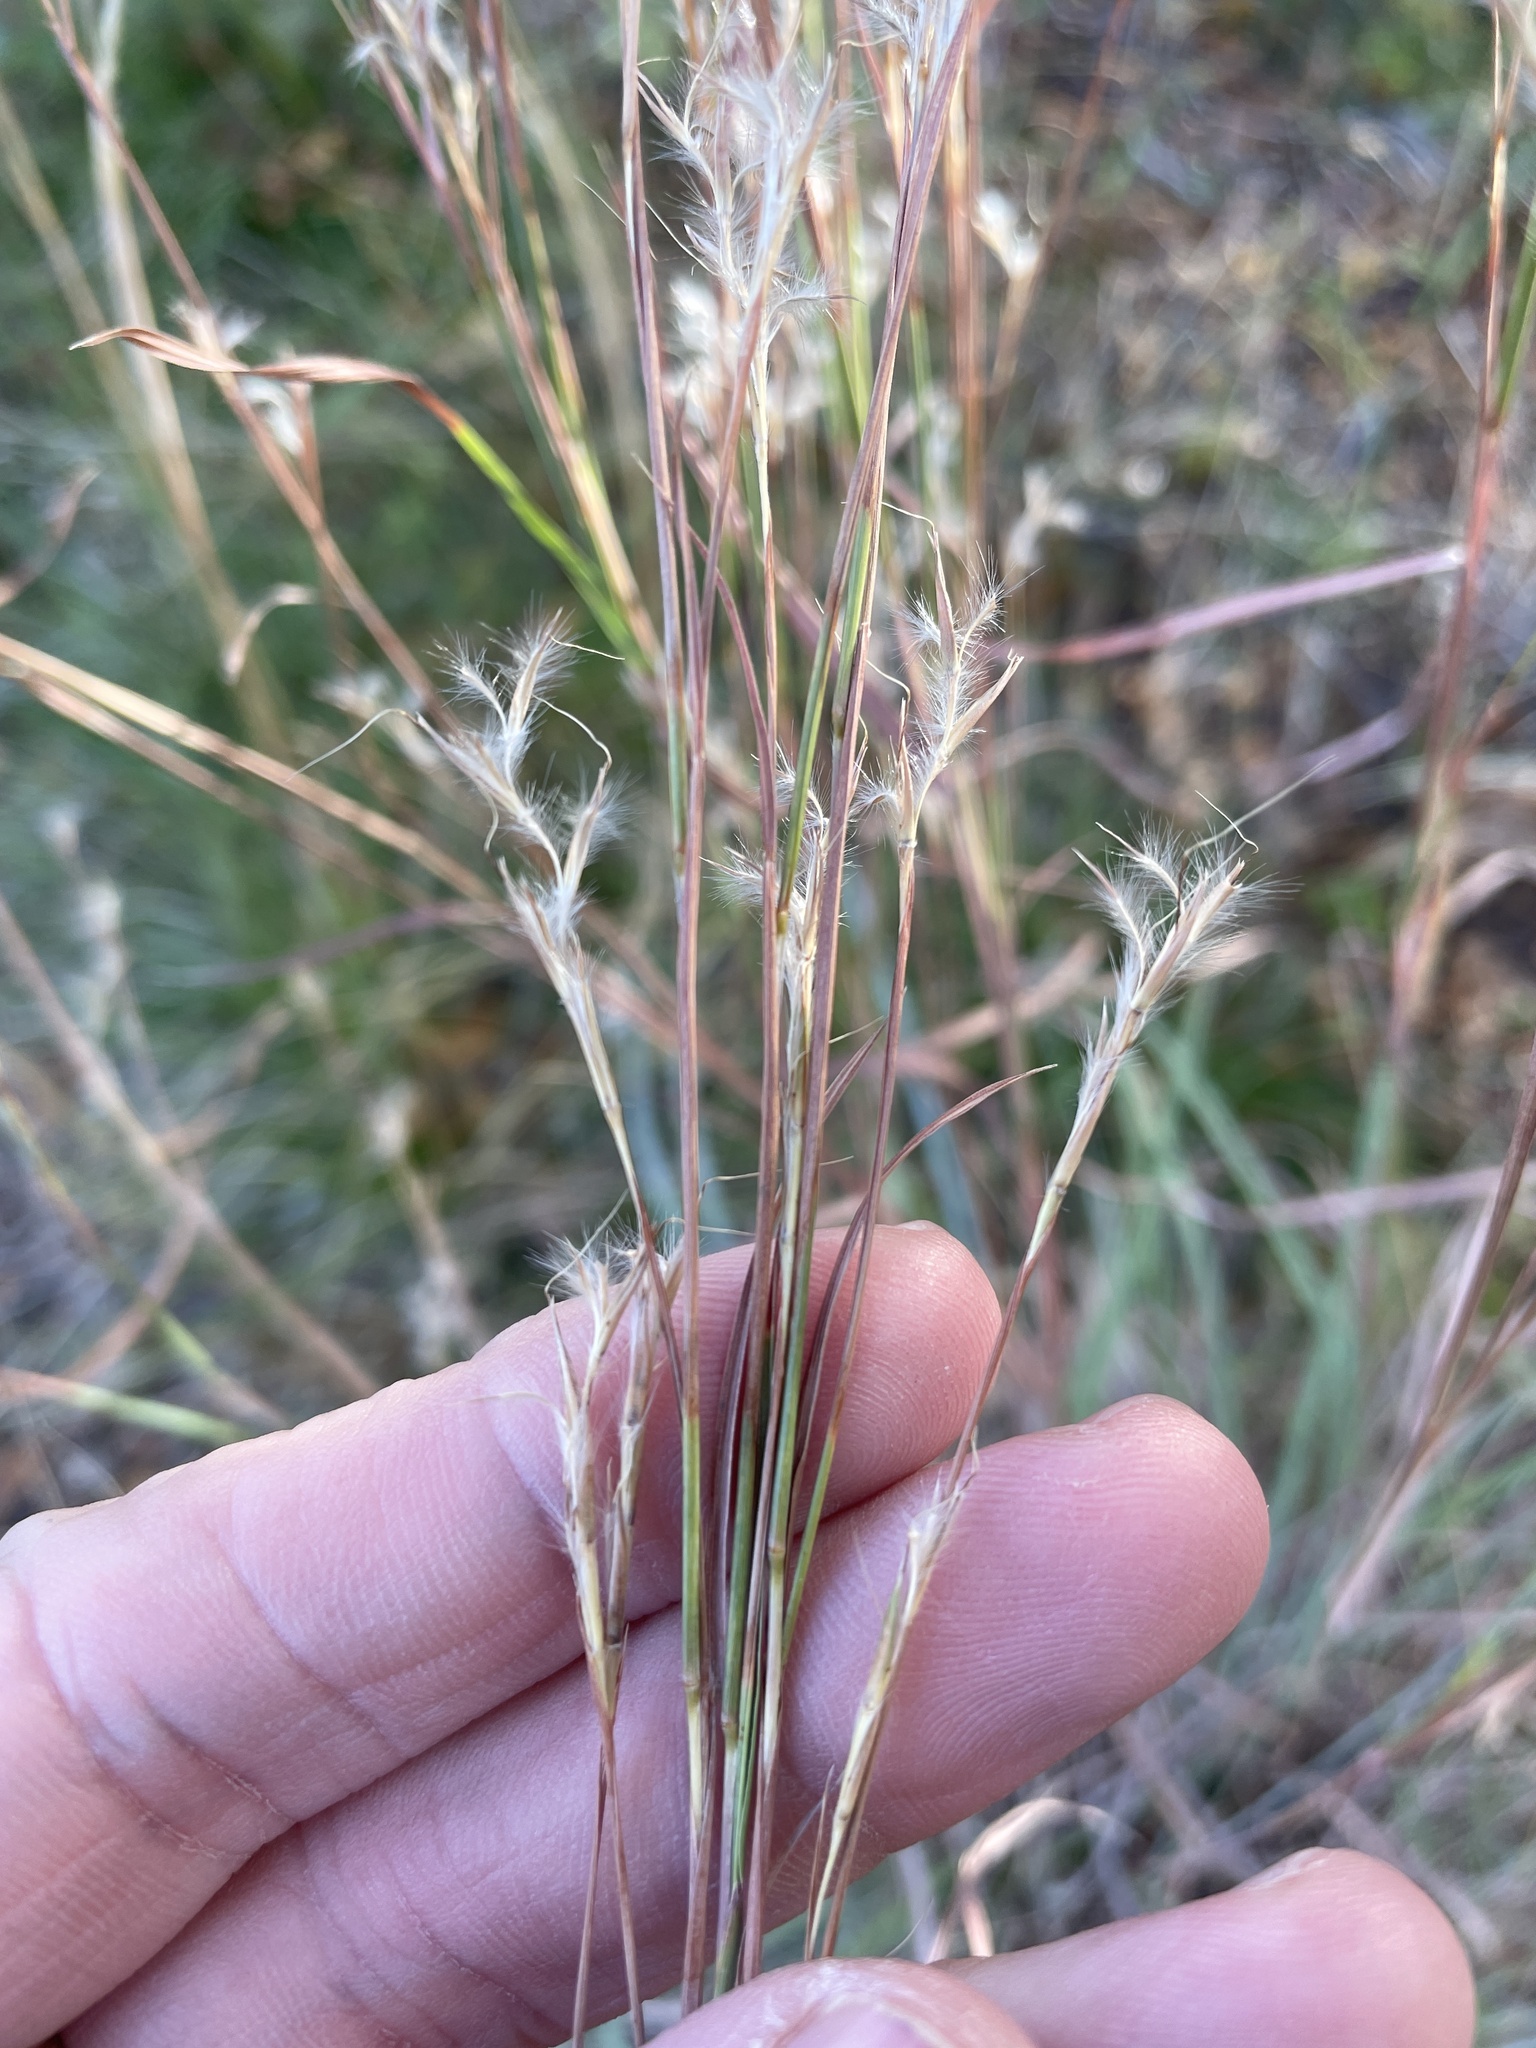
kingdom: Plantae
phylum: Tracheophyta
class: Liliopsida
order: Poales
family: Poaceae
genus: Schizachyrium
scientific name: Schizachyrium scoparium
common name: Little bluestem
